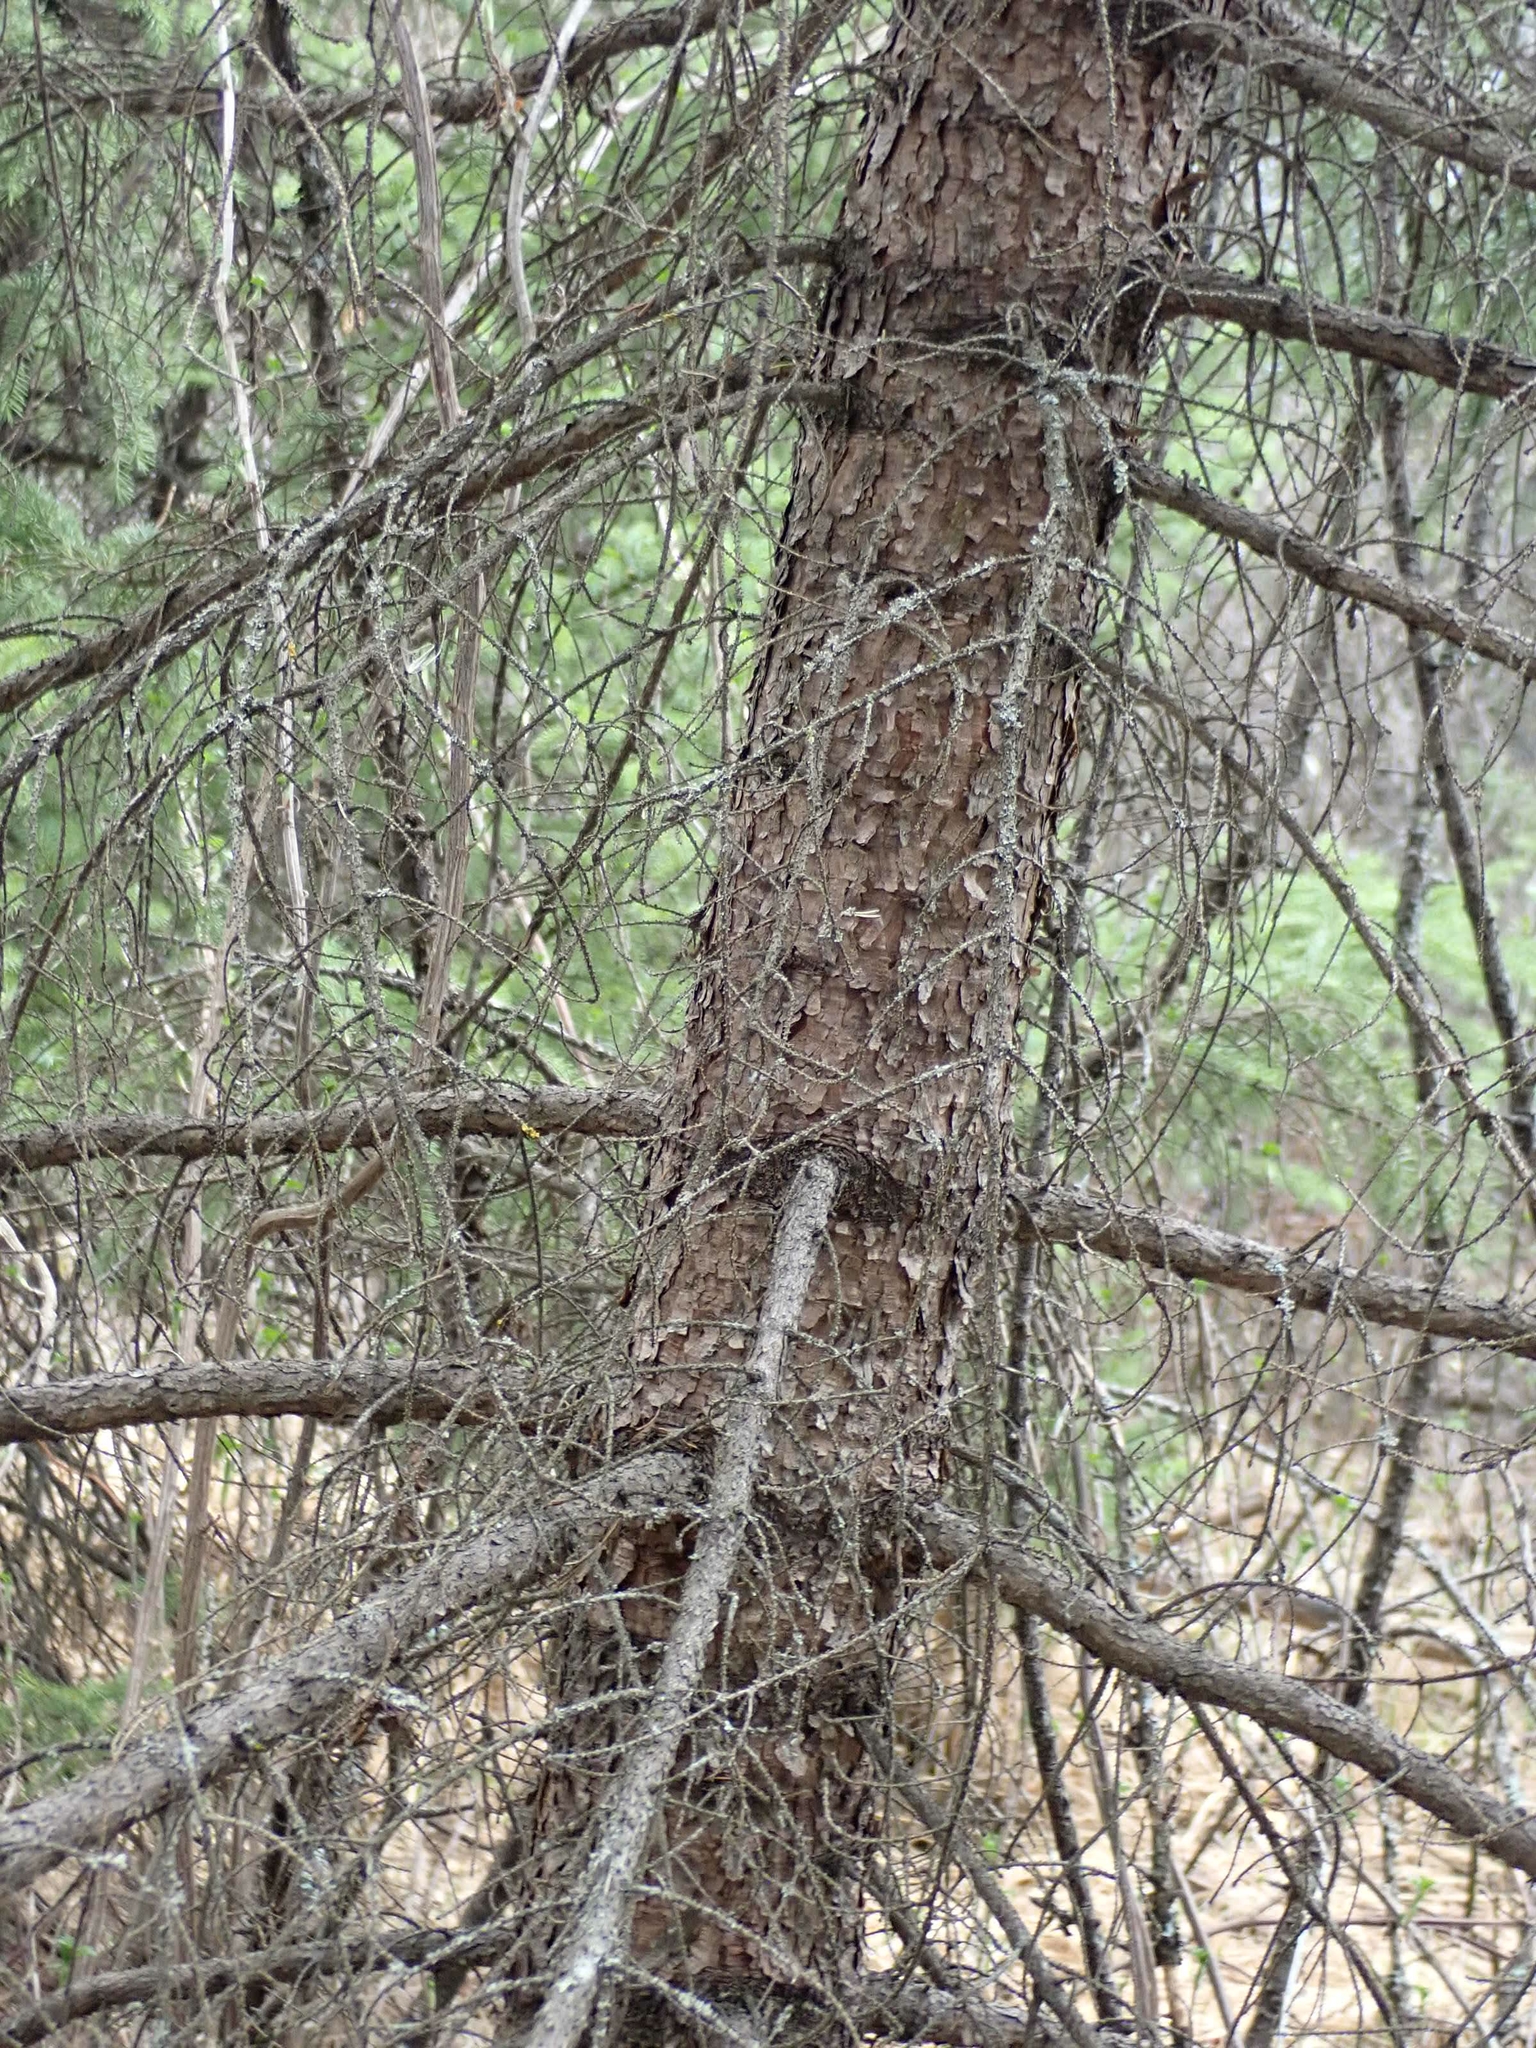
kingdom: Plantae
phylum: Tracheophyta
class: Pinopsida
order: Pinales
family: Pinaceae
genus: Picea
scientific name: Picea mariana
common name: Black spruce
